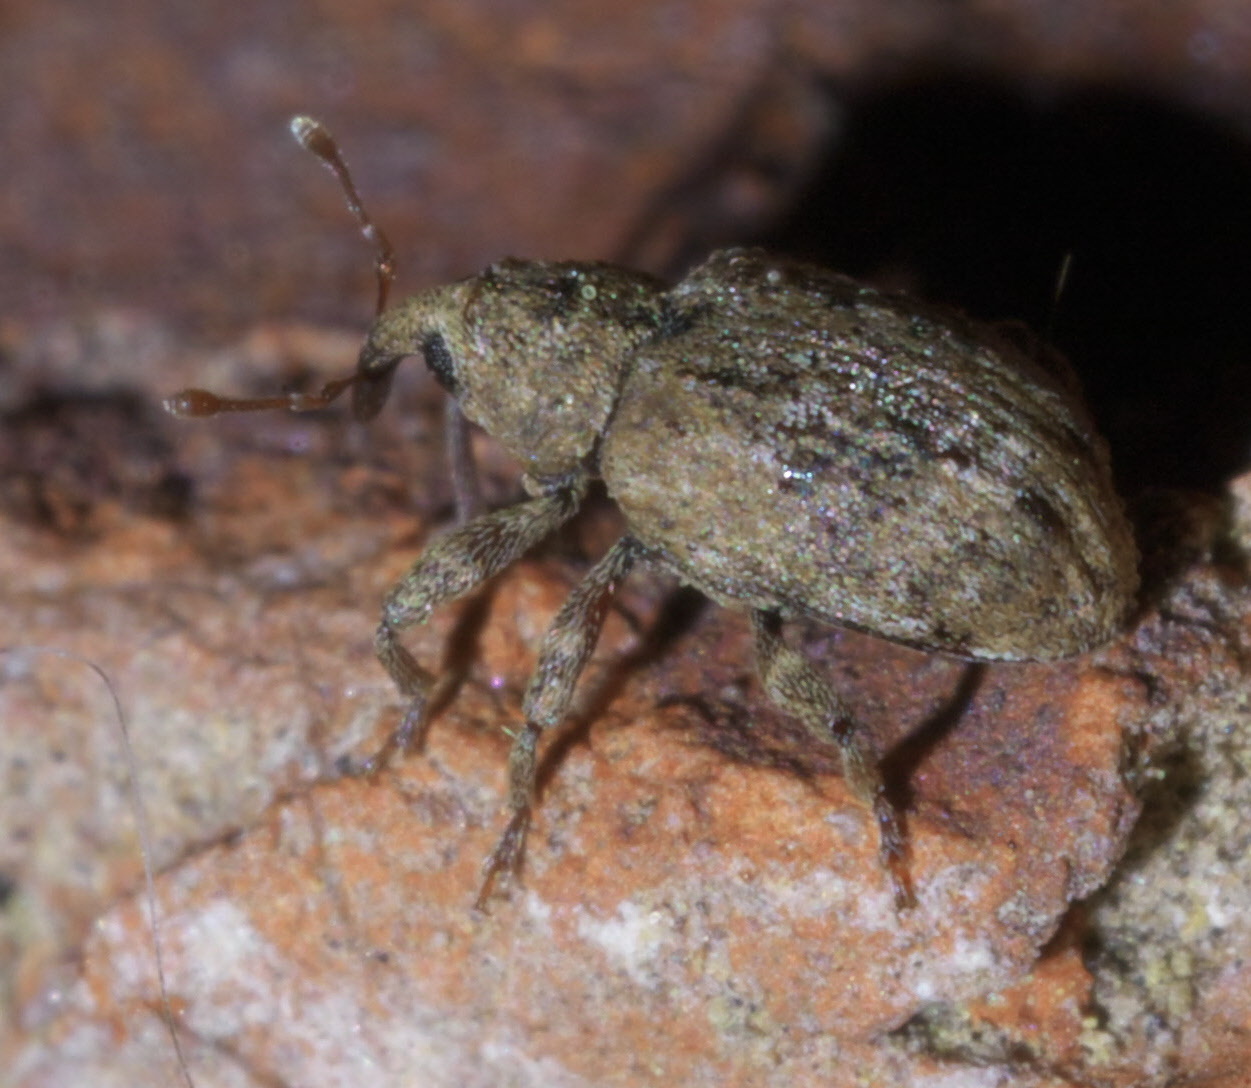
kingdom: Animalia
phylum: Arthropoda
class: Insecta
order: Coleoptera
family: Curculionidae
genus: Conotrachelus
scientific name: Conotrachelus recessus
